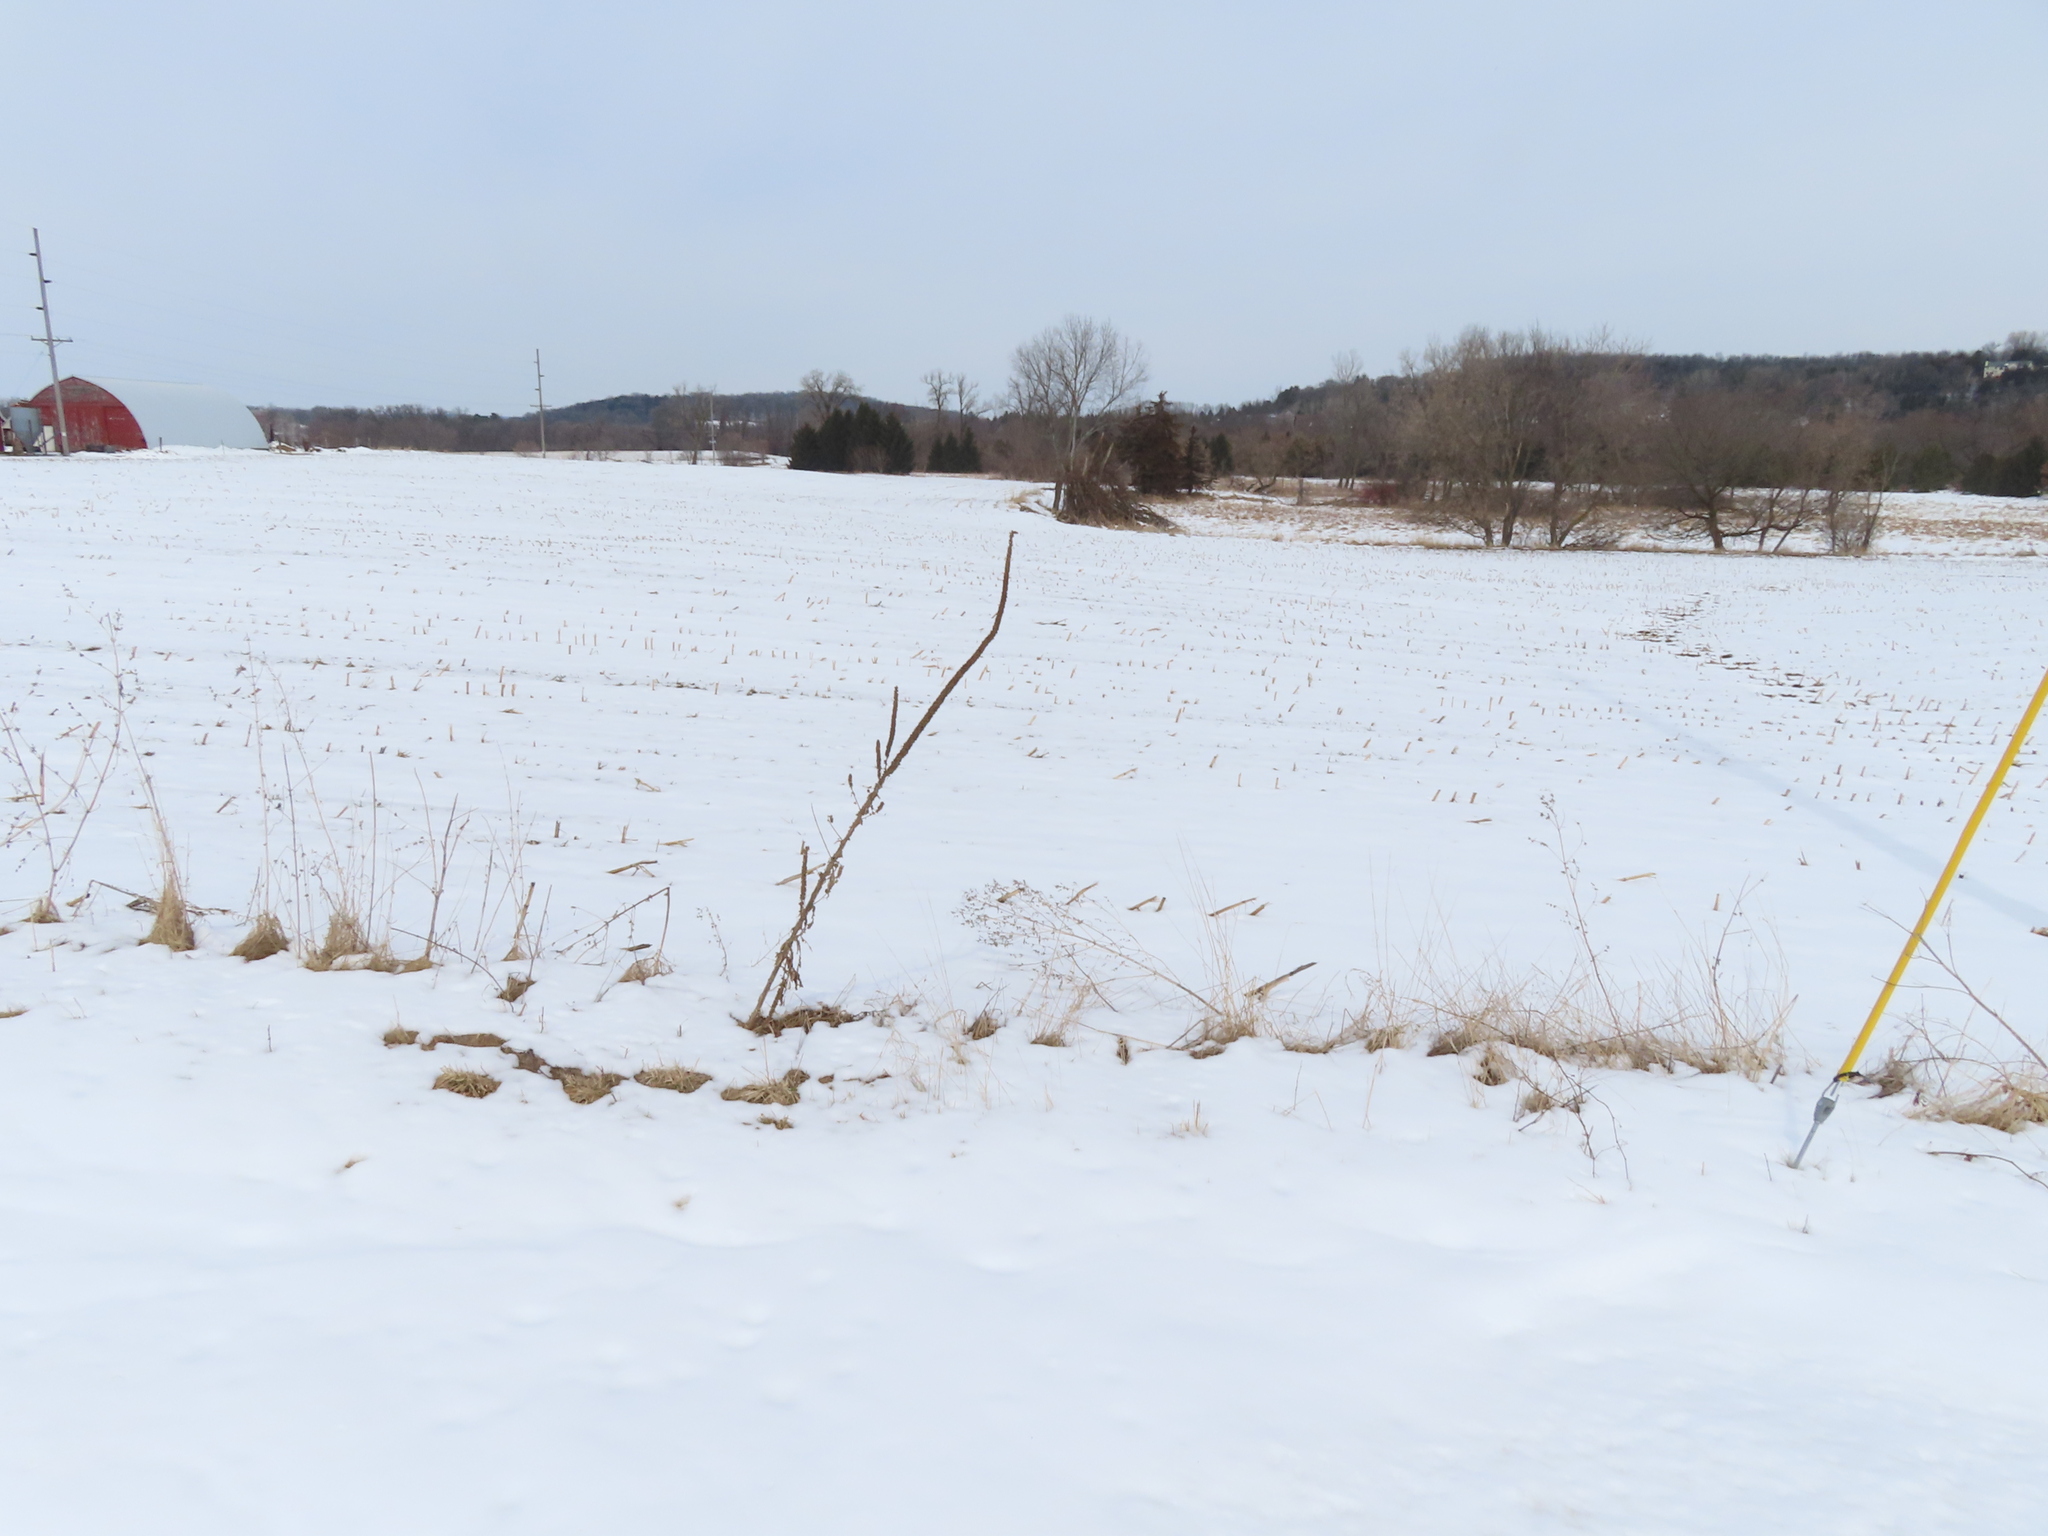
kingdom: Plantae
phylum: Tracheophyta
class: Magnoliopsida
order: Lamiales
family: Scrophulariaceae
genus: Verbascum
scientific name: Verbascum thapsus
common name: Common mullein
